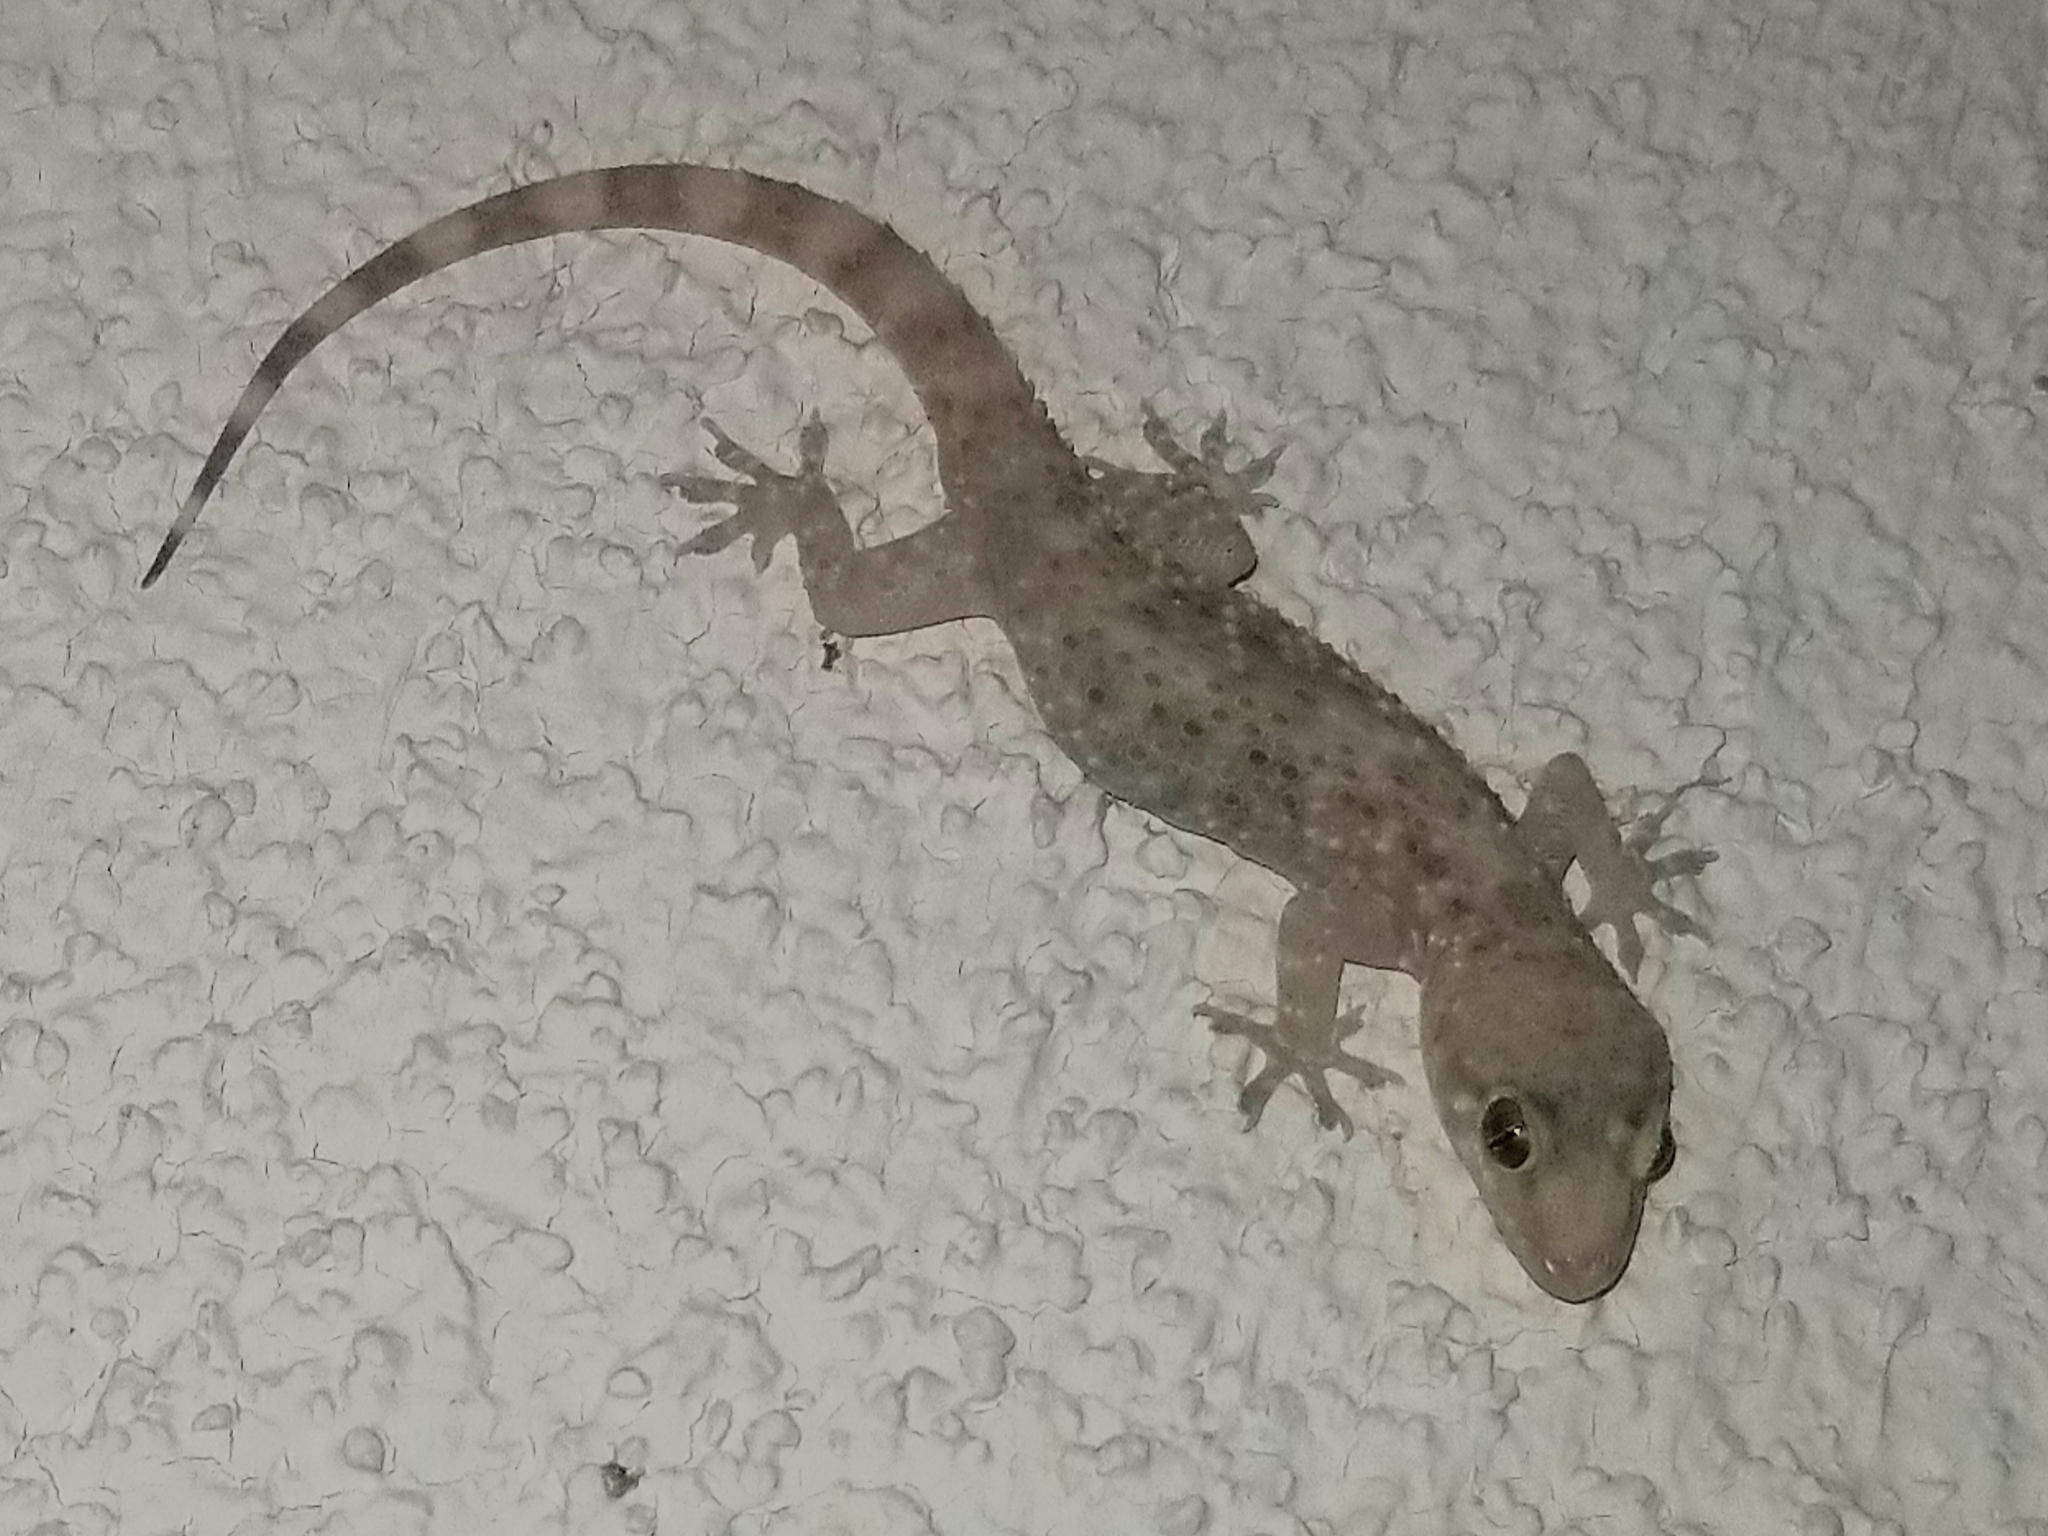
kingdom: Animalia
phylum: Chordata
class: Squamata
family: Gekkonidae
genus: Hemidactylus
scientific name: Hemidactylus turcicus
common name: Turkish gecko
